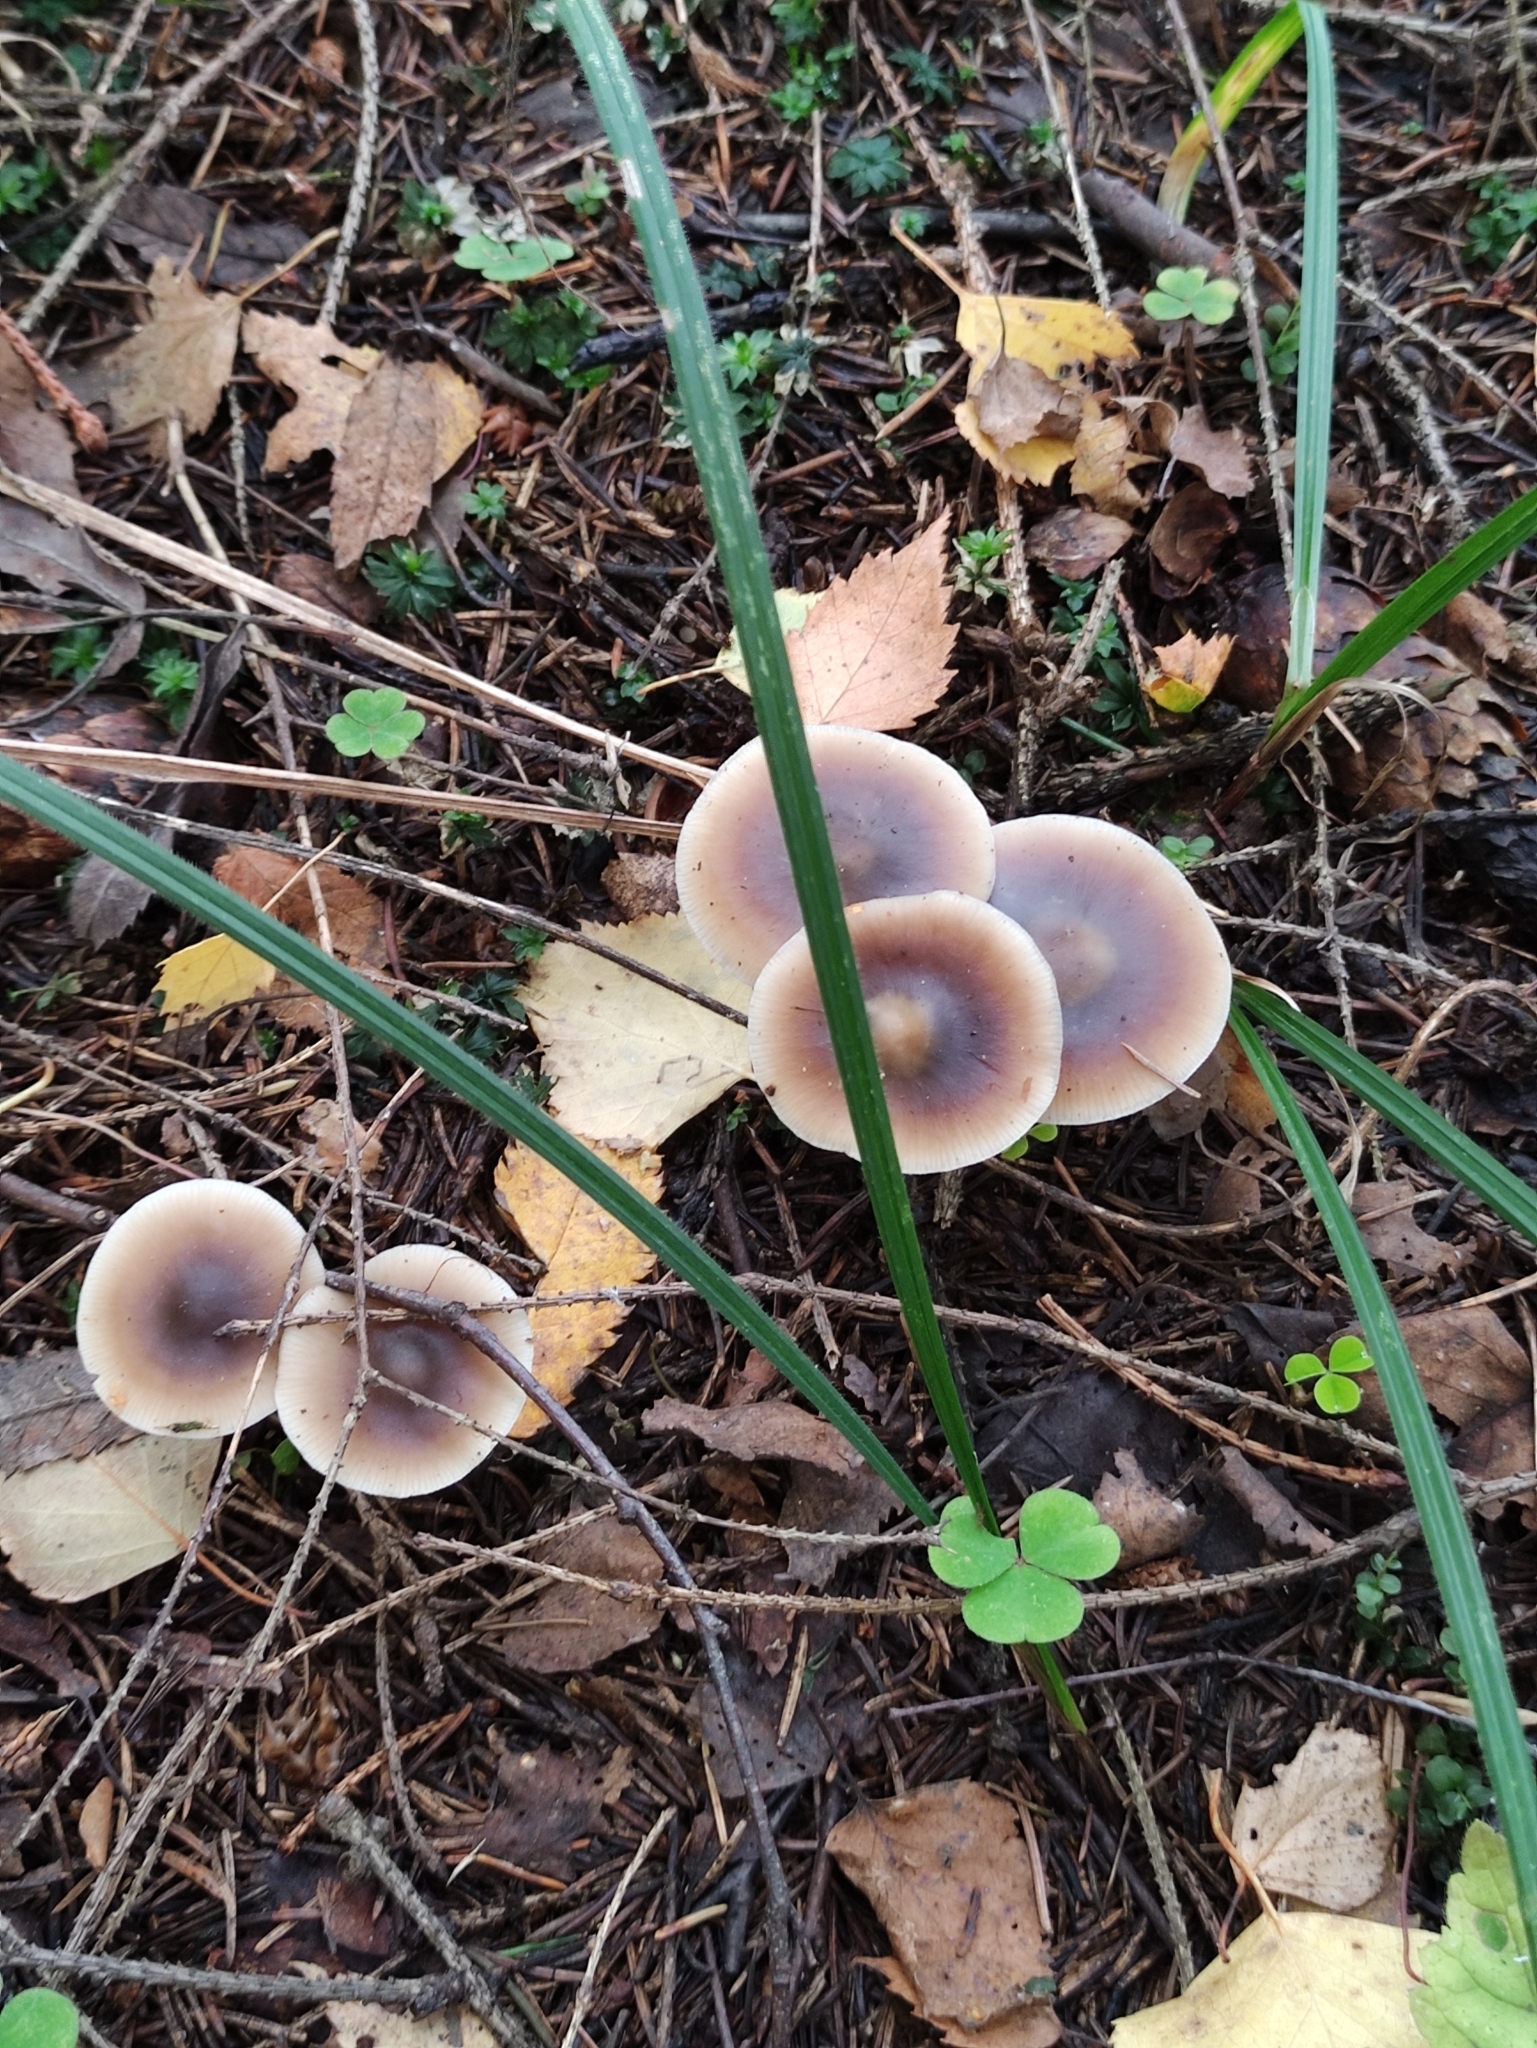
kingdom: Fungi
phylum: Basidiomycota
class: Agaricomycetes
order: Agaricales
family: Omphalotaceae
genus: Rhodocollybia
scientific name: Rhodocollybia butyracea
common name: Butter cap
